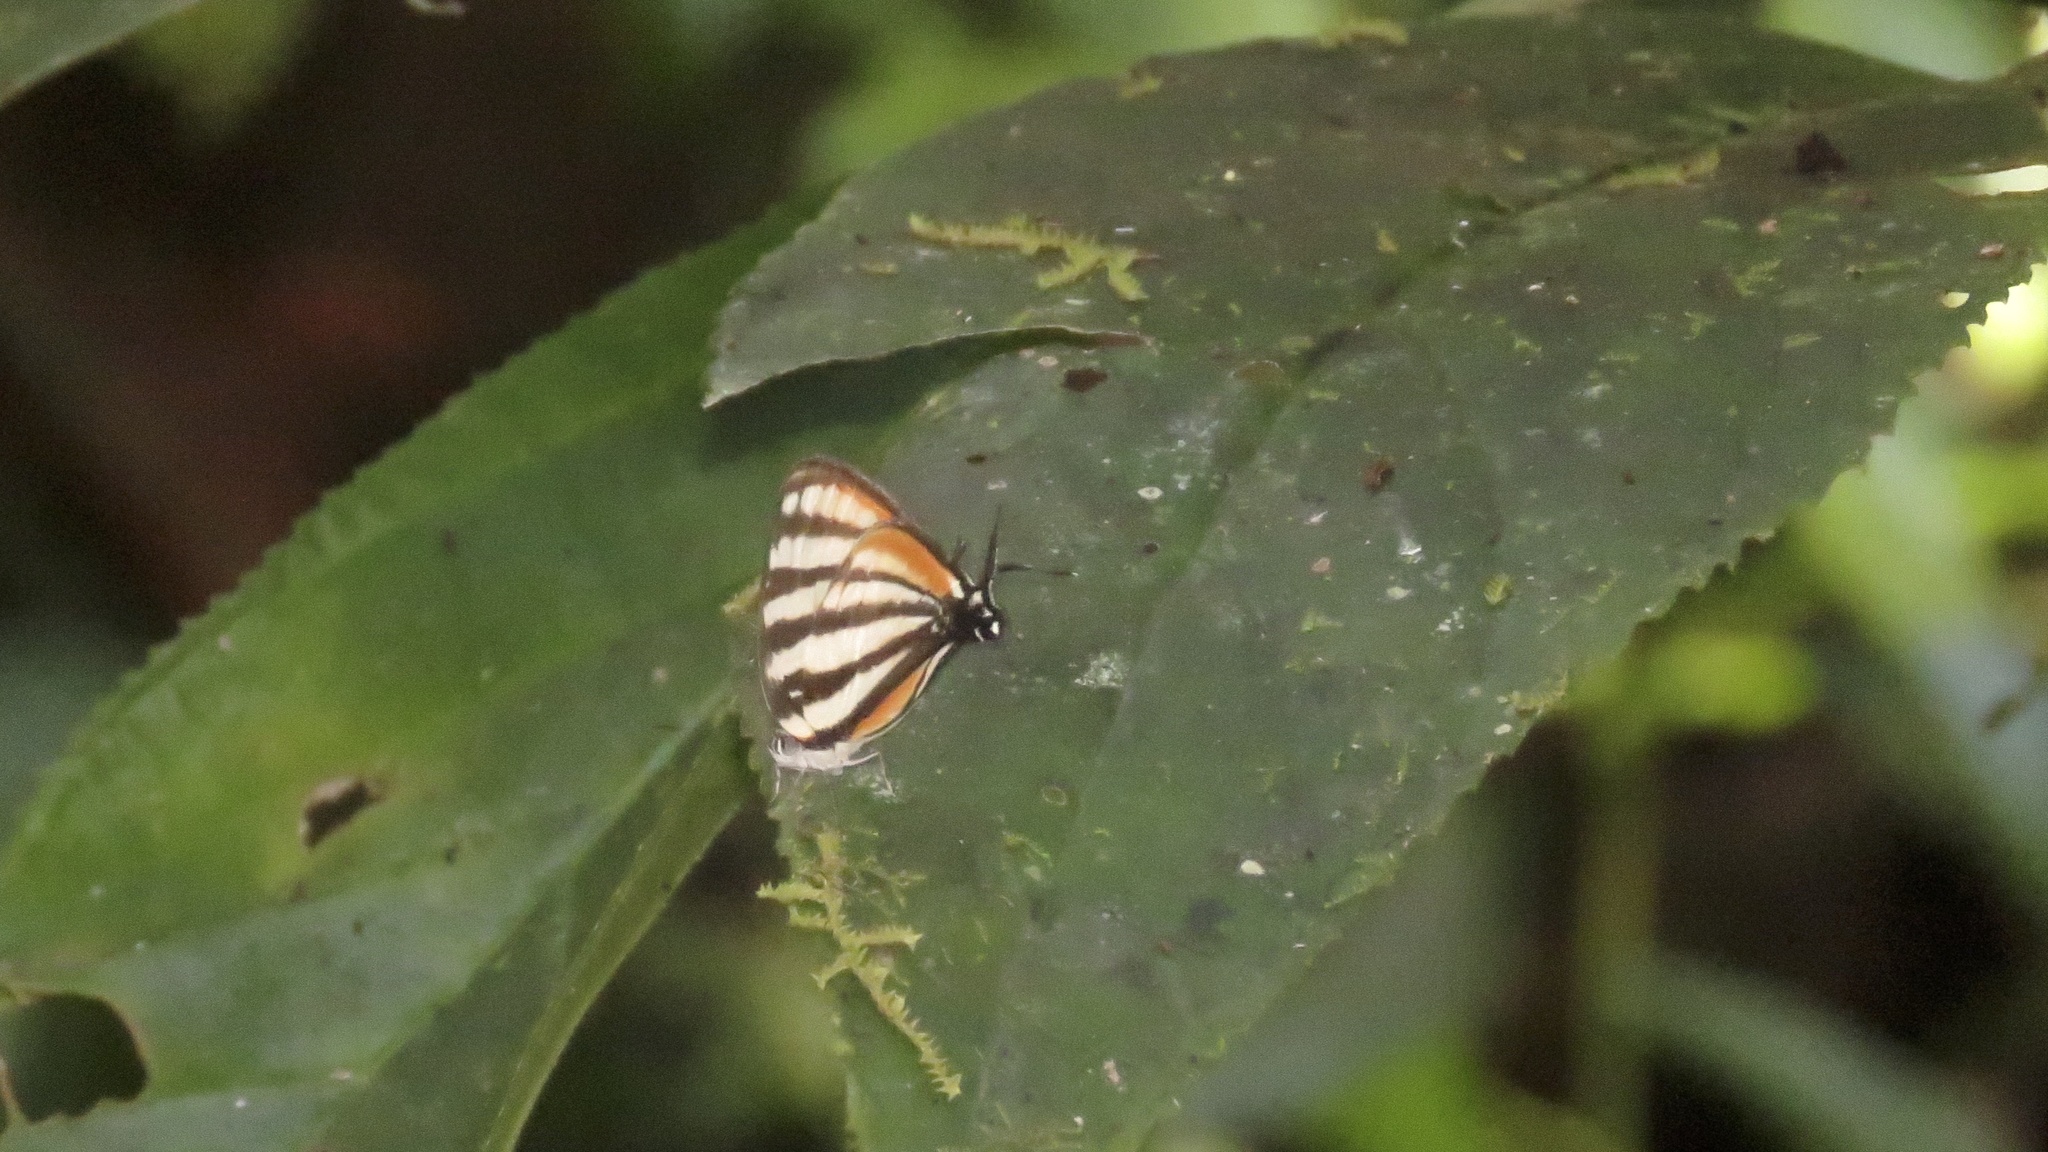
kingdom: Animalia
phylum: Arthropoda
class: Insecta
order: Lepidoptera
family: Lycaenidae
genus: Arawacus
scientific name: Arawacus lincoides
